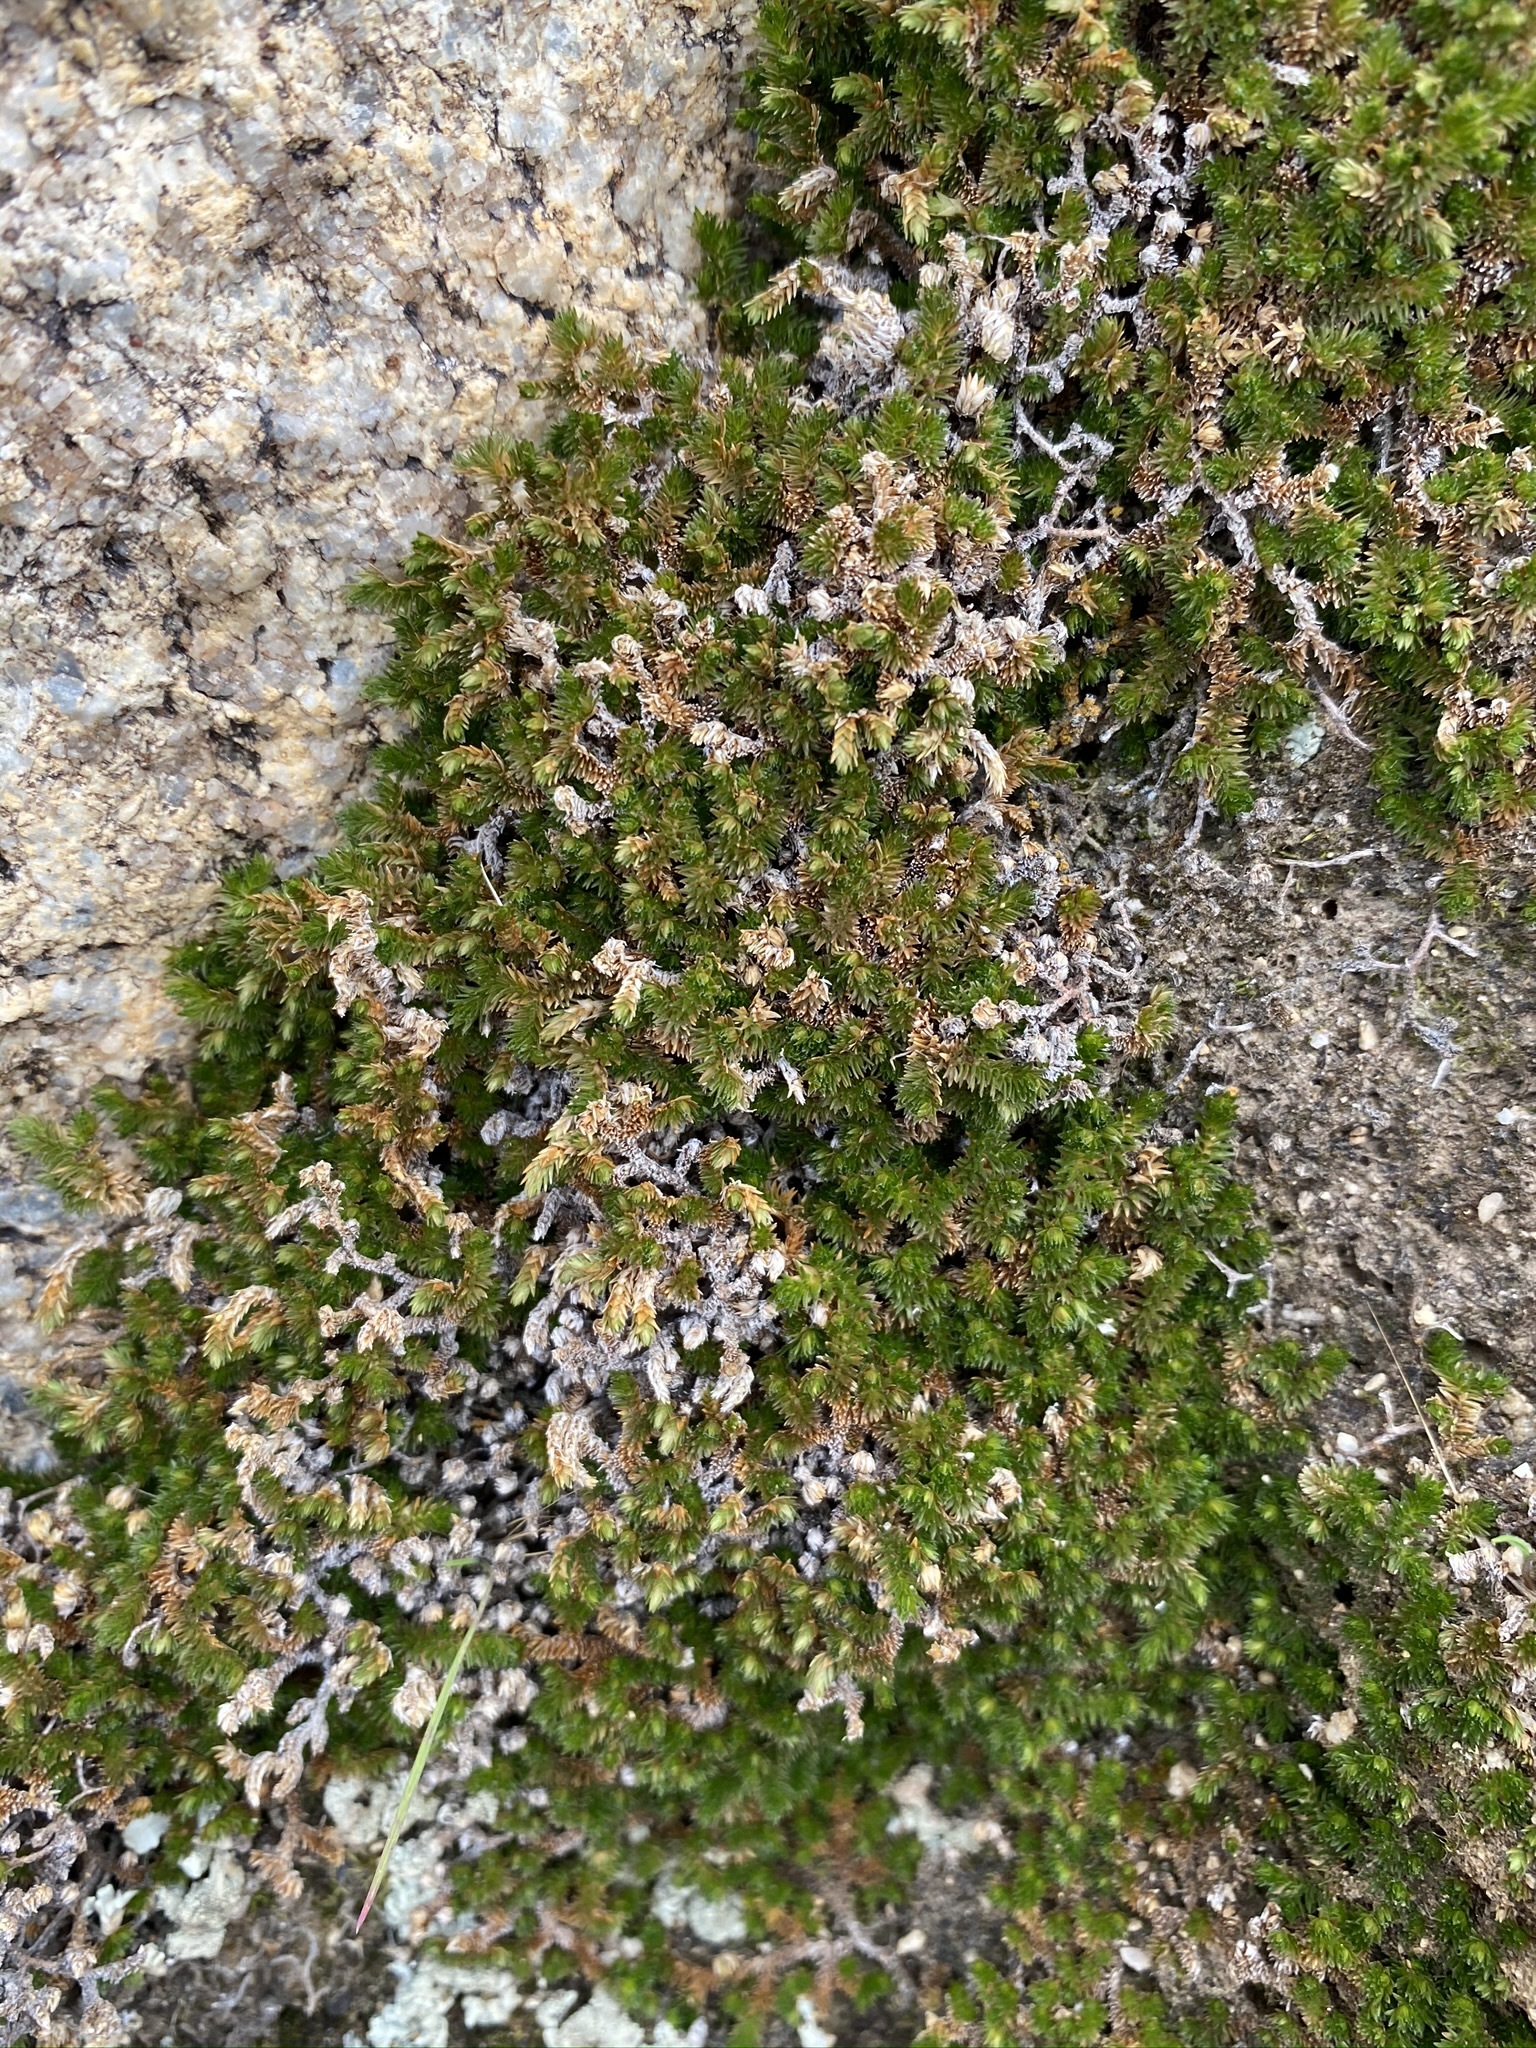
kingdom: Plantae
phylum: Tracheophyta
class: Lycopodiopsida
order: Selaginellales
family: Selaginellaceae
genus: Selaginella
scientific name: Selaginella eremophila
